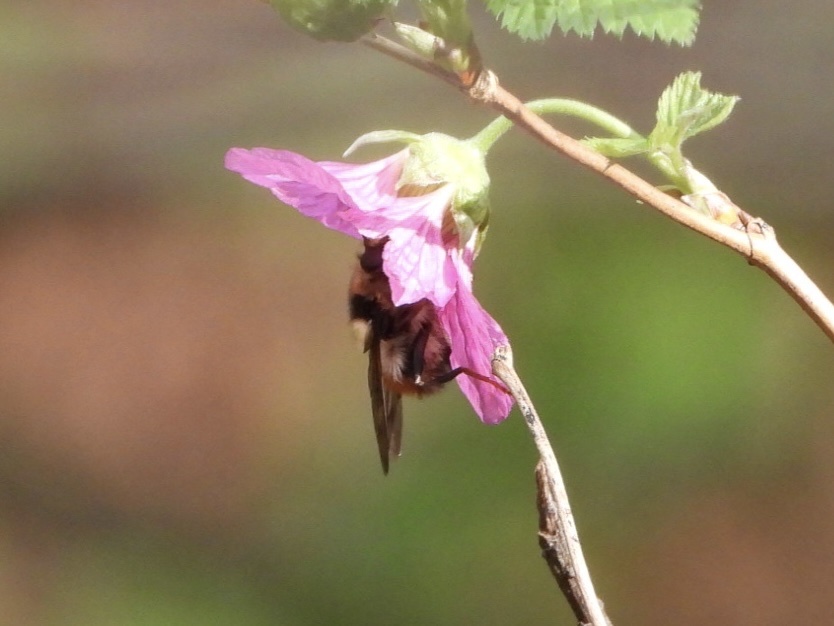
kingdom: Animalia
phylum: Arthropoda
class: Insecta
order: Diptera
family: Syrphidae
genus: Criorhina
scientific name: Criorhina bubulcus
